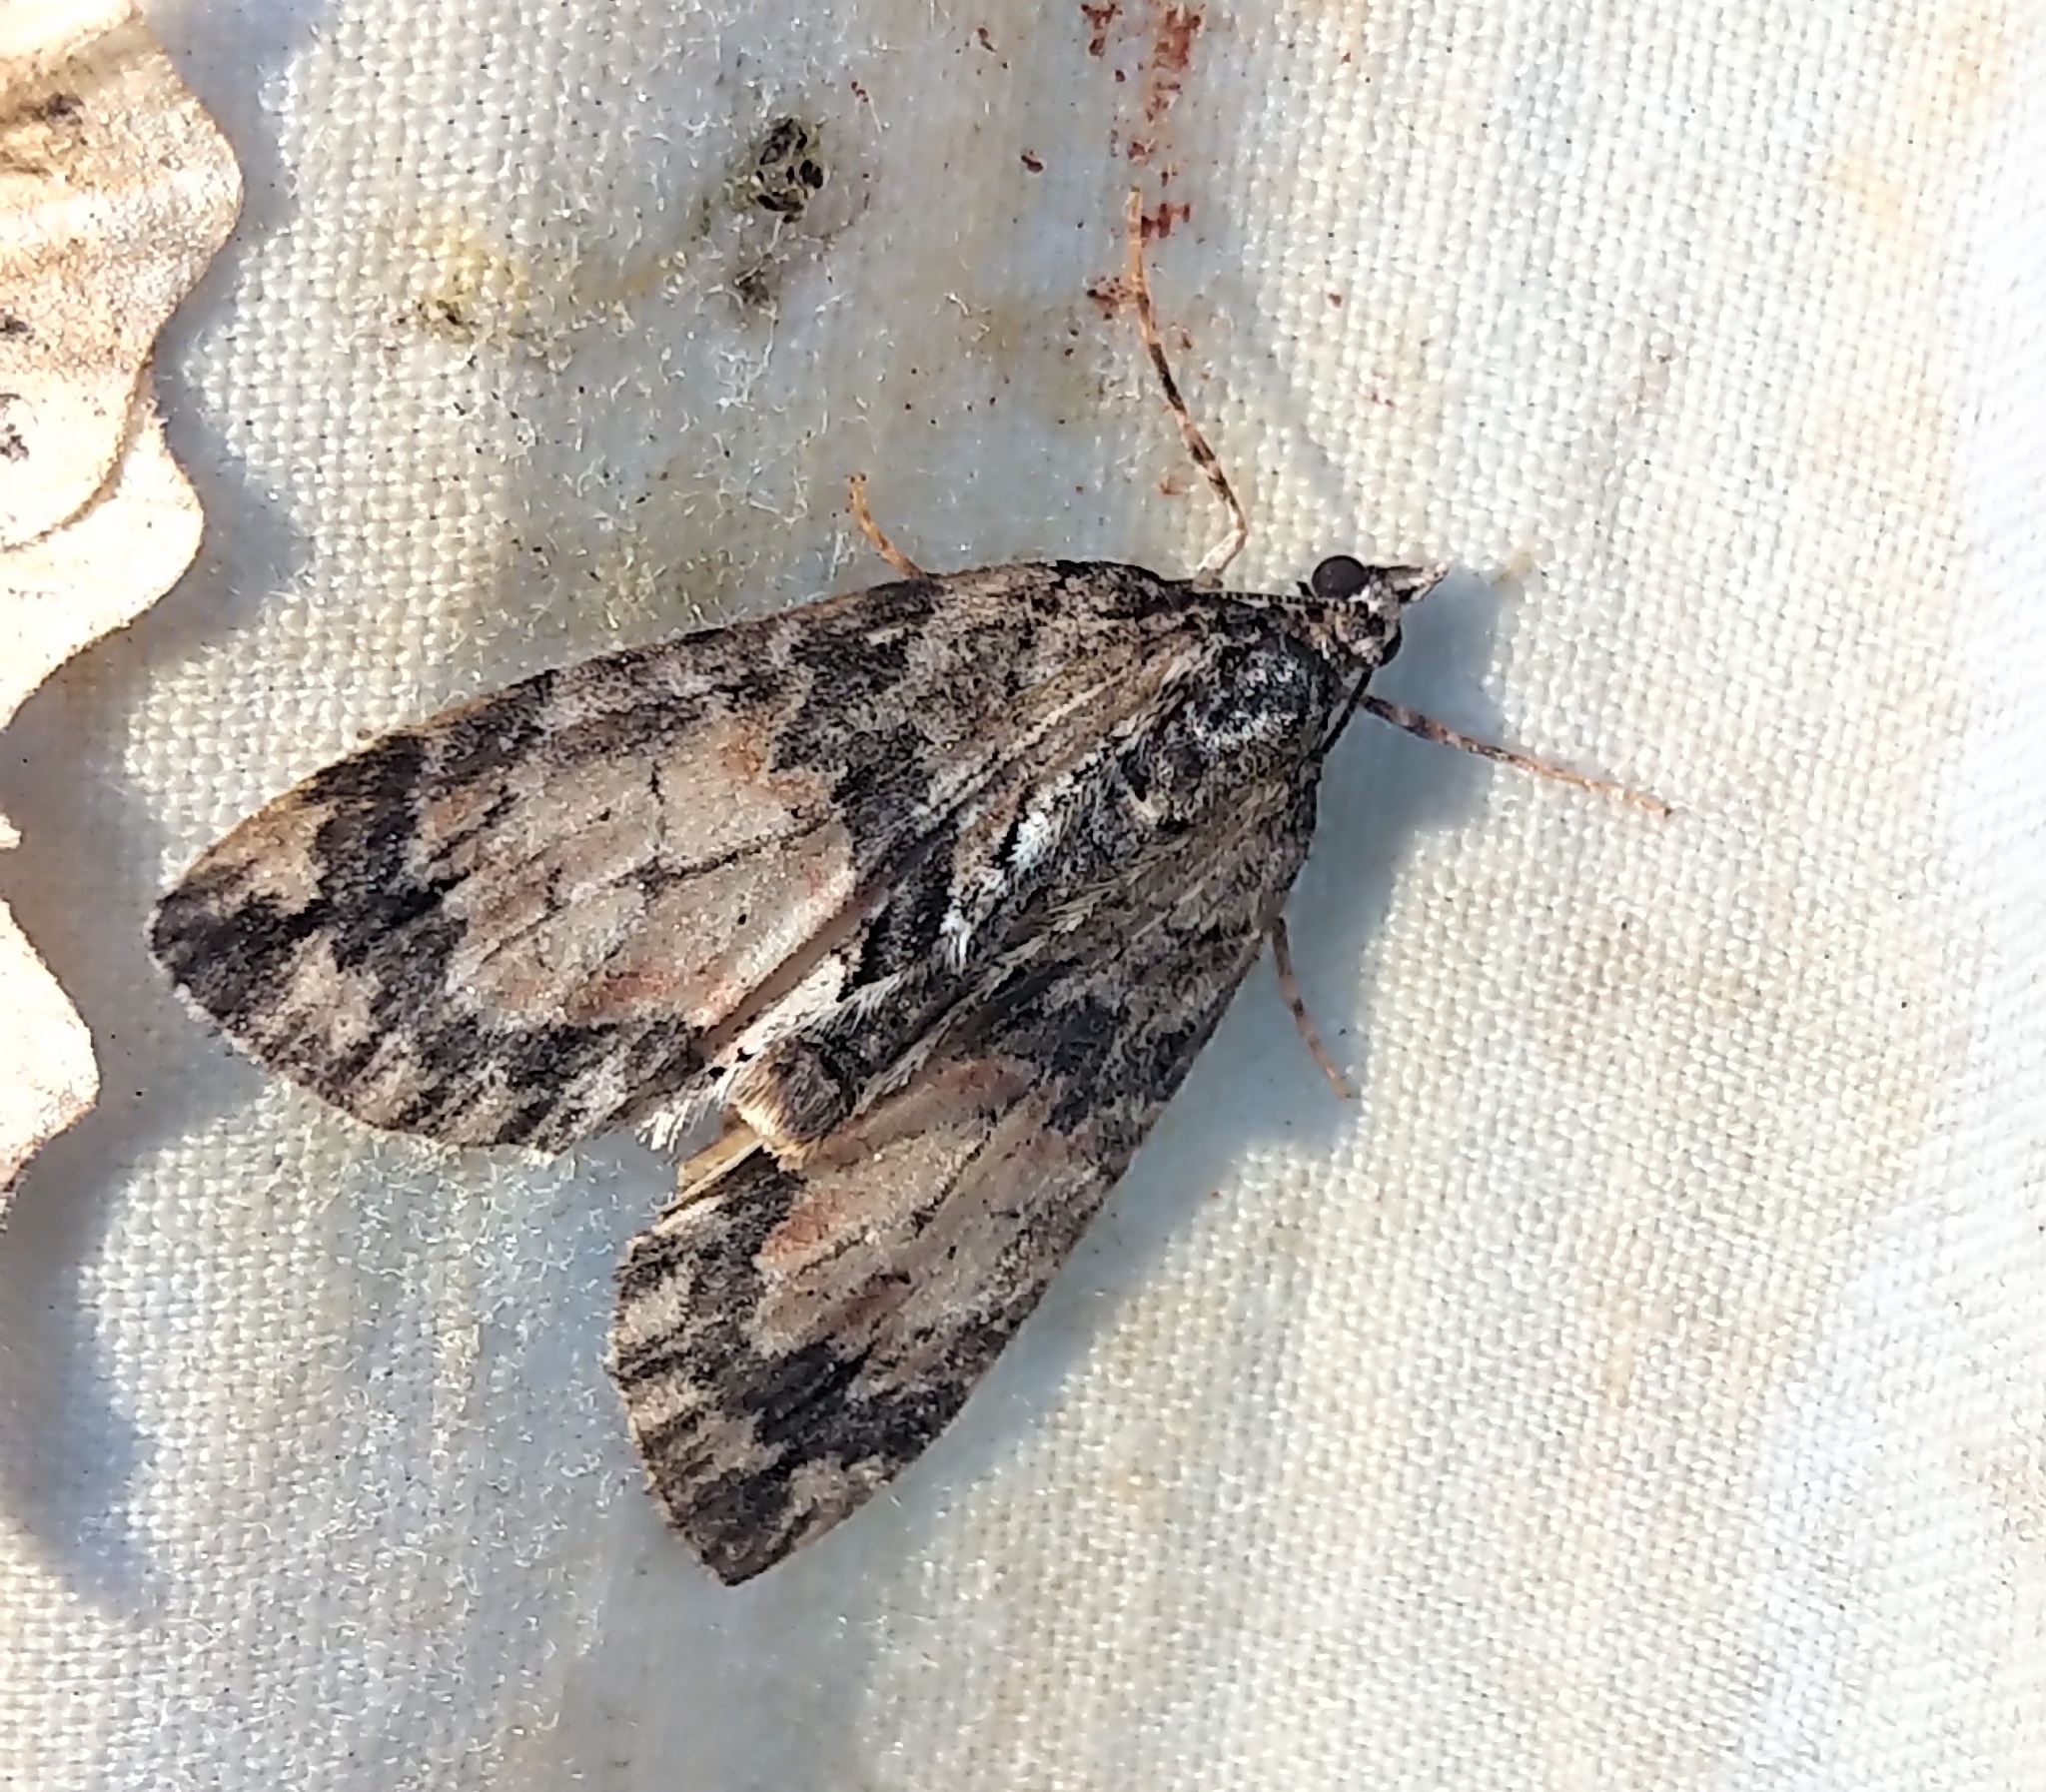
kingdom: Animalia
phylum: Arthropoda
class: Insecta
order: Lepidoptera
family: Geometridae
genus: Hydriomena
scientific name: Hydriomena perfracta
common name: Shattered hydriomena moth
